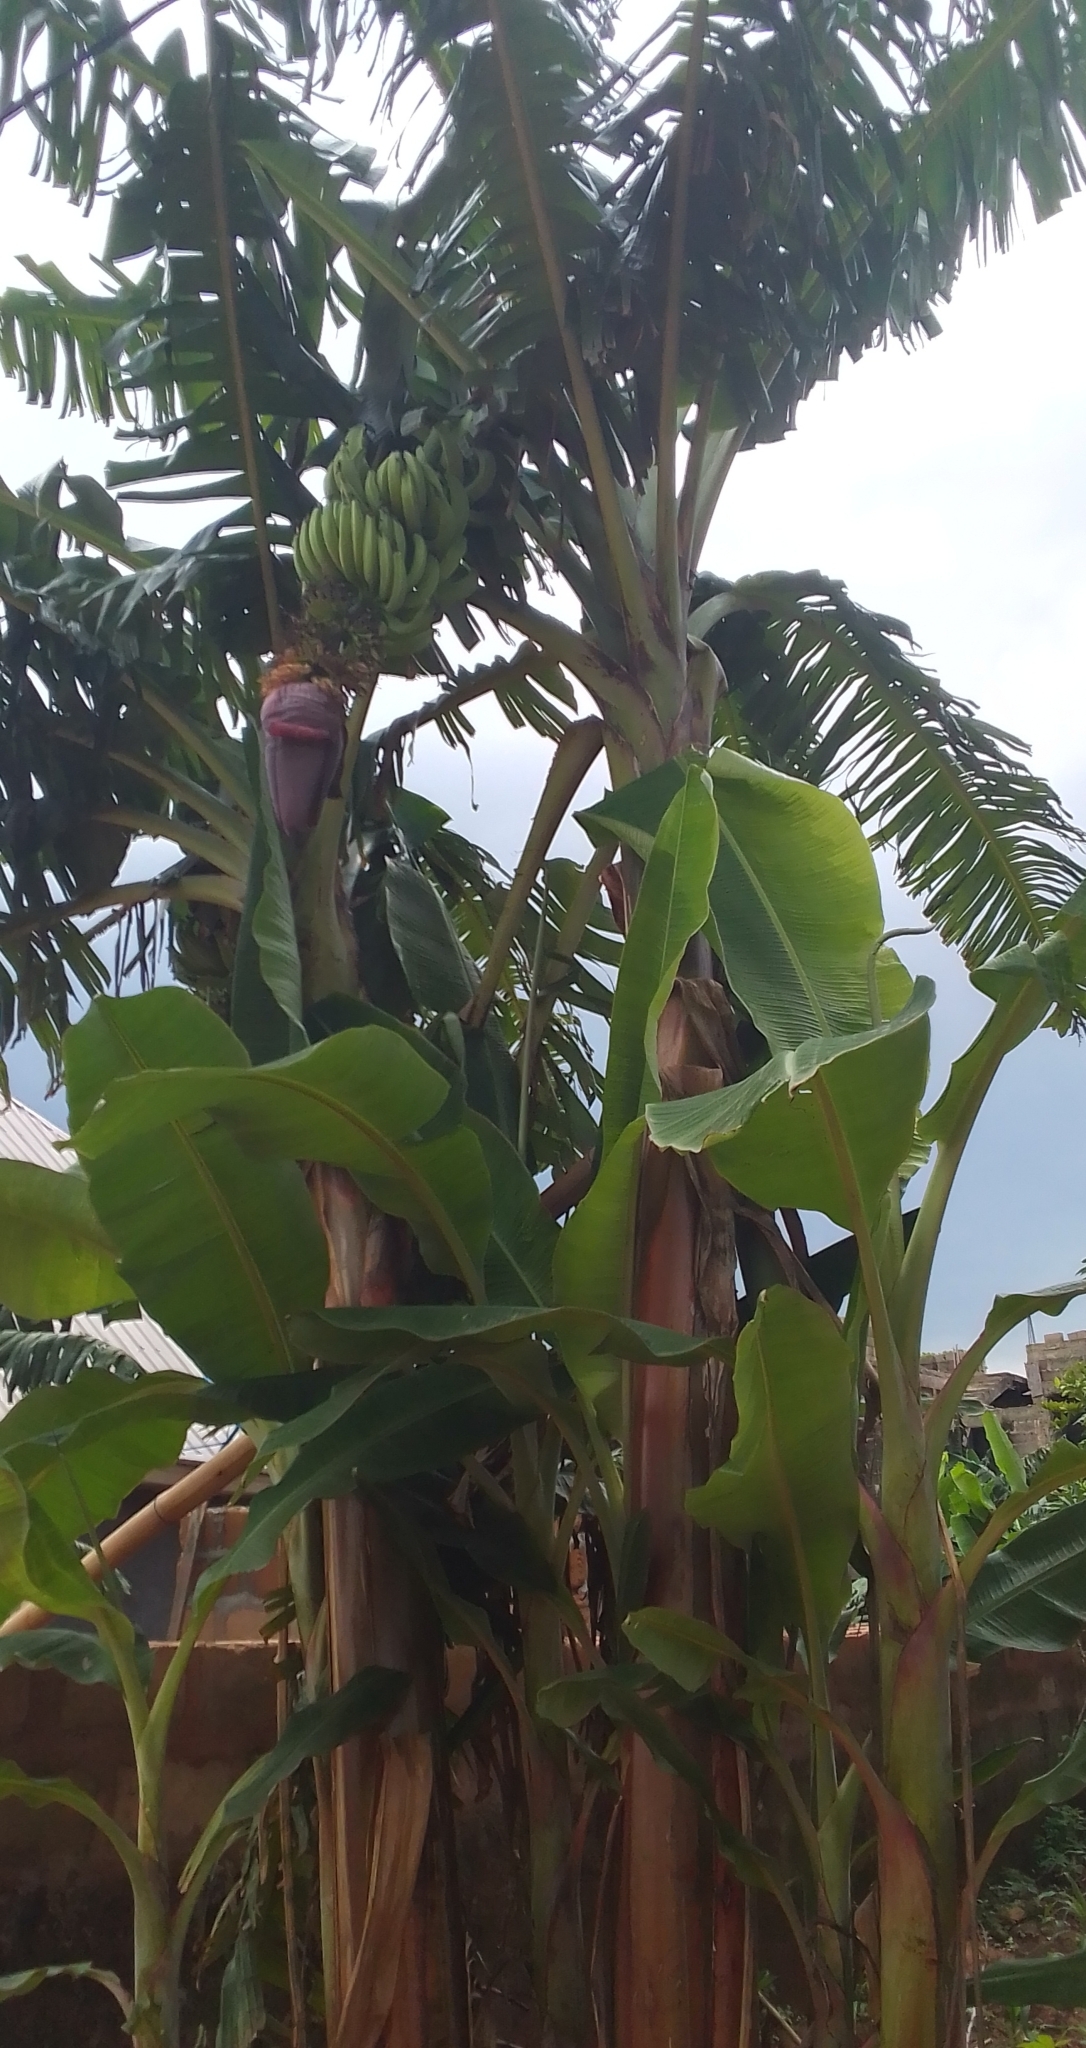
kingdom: Plantae
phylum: Tracheophyta
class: Liliopsida
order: Zingiberales
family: Musaceae
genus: Musa
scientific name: Musa paradisiaca
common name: French plantain
